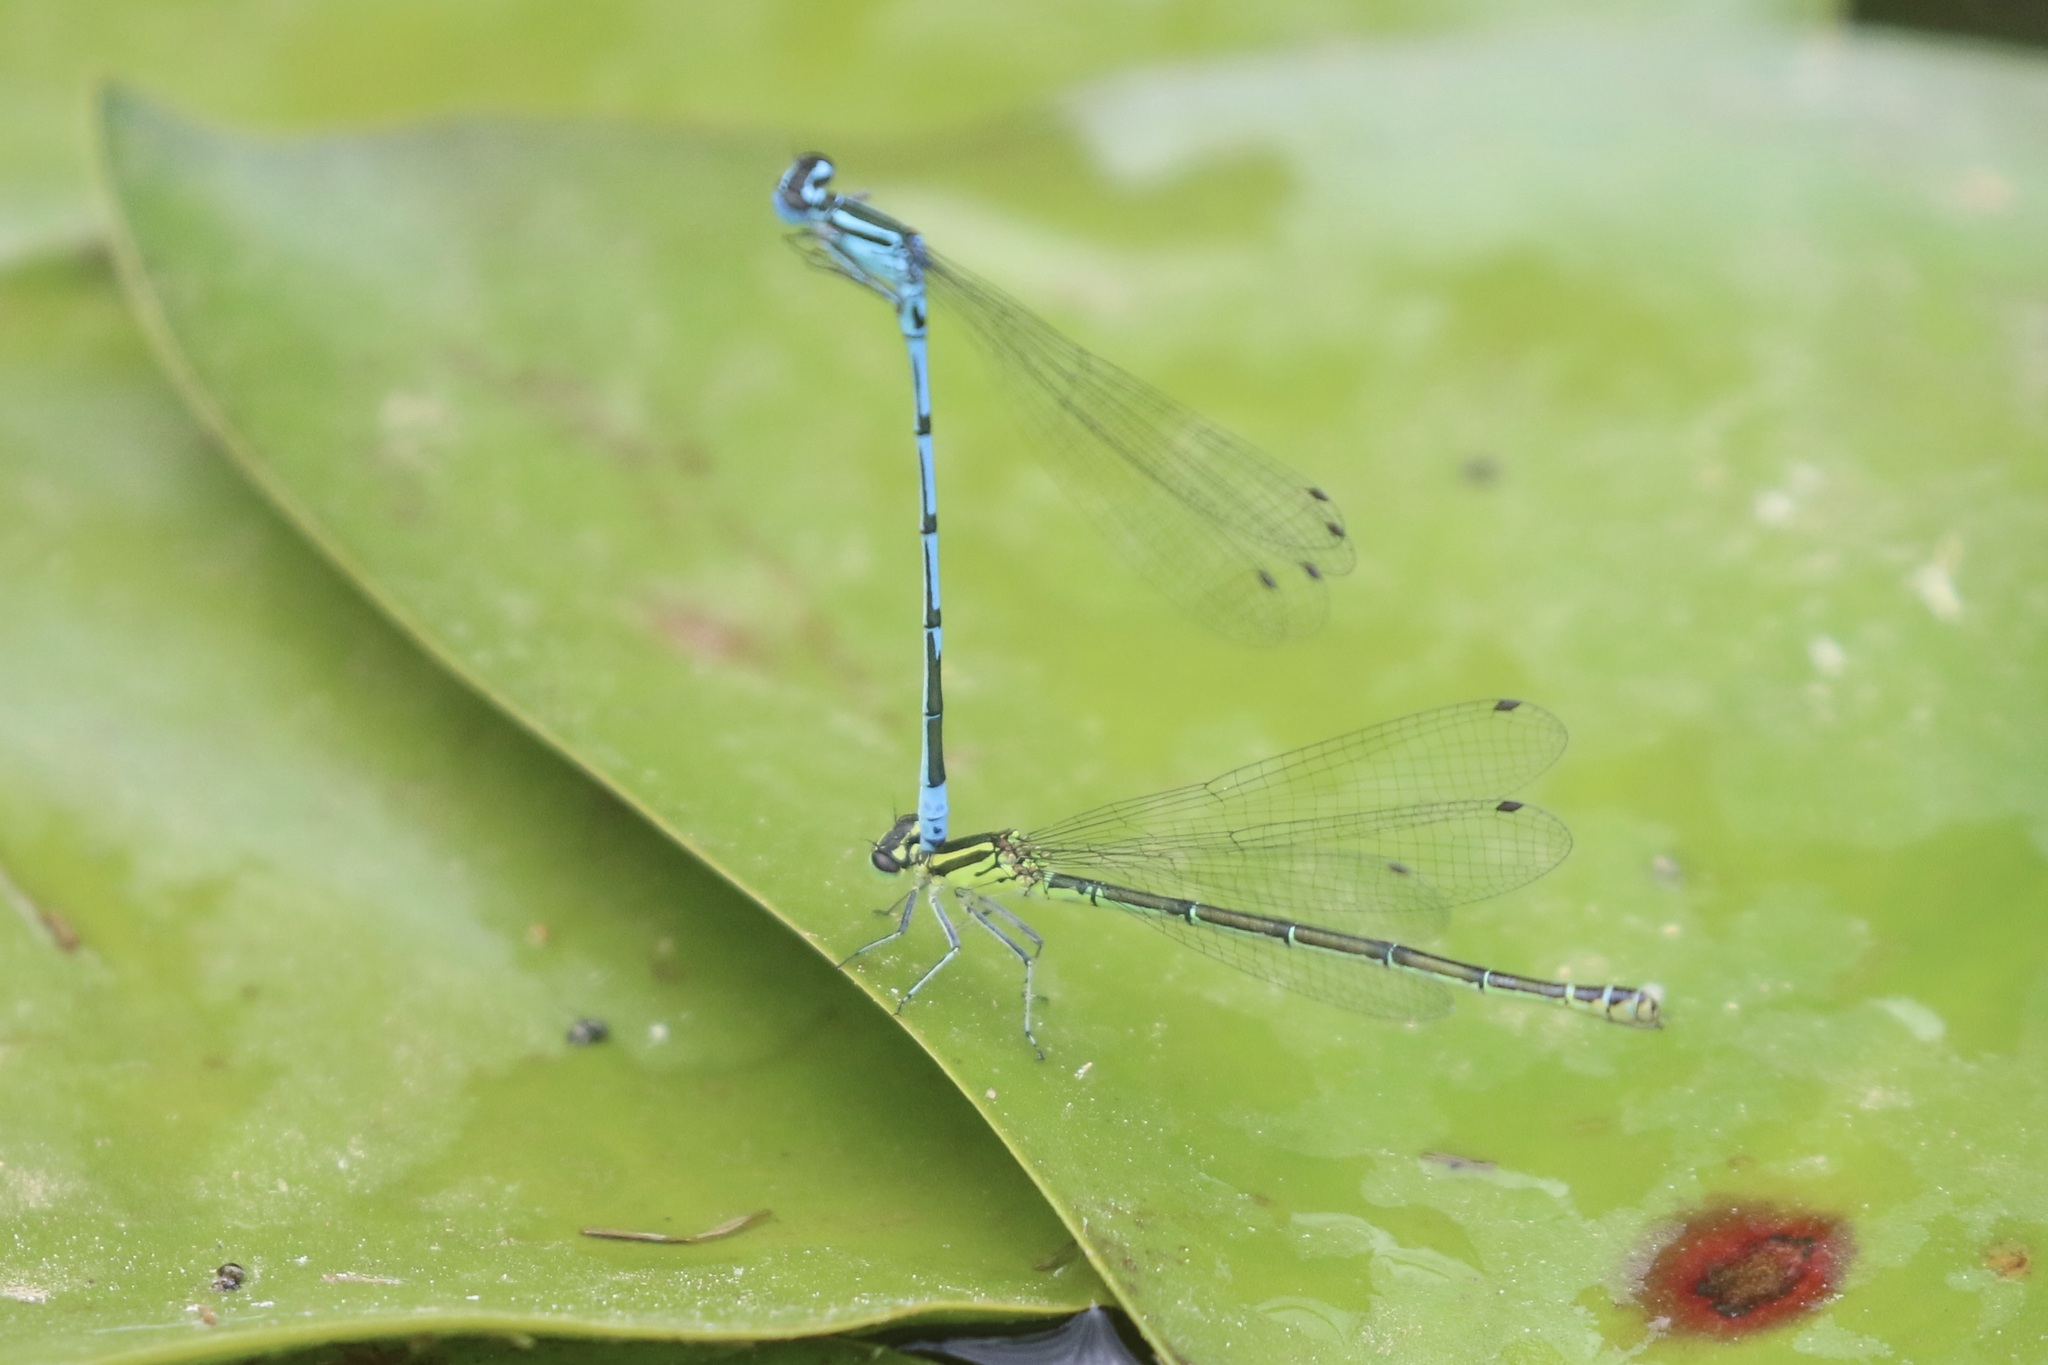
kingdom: Animalia
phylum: Arthropoda
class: Insecta
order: Odonata
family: Coenagrionidae
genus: Coenagrion
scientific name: Coenagrion puella
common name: Azure damselfly
